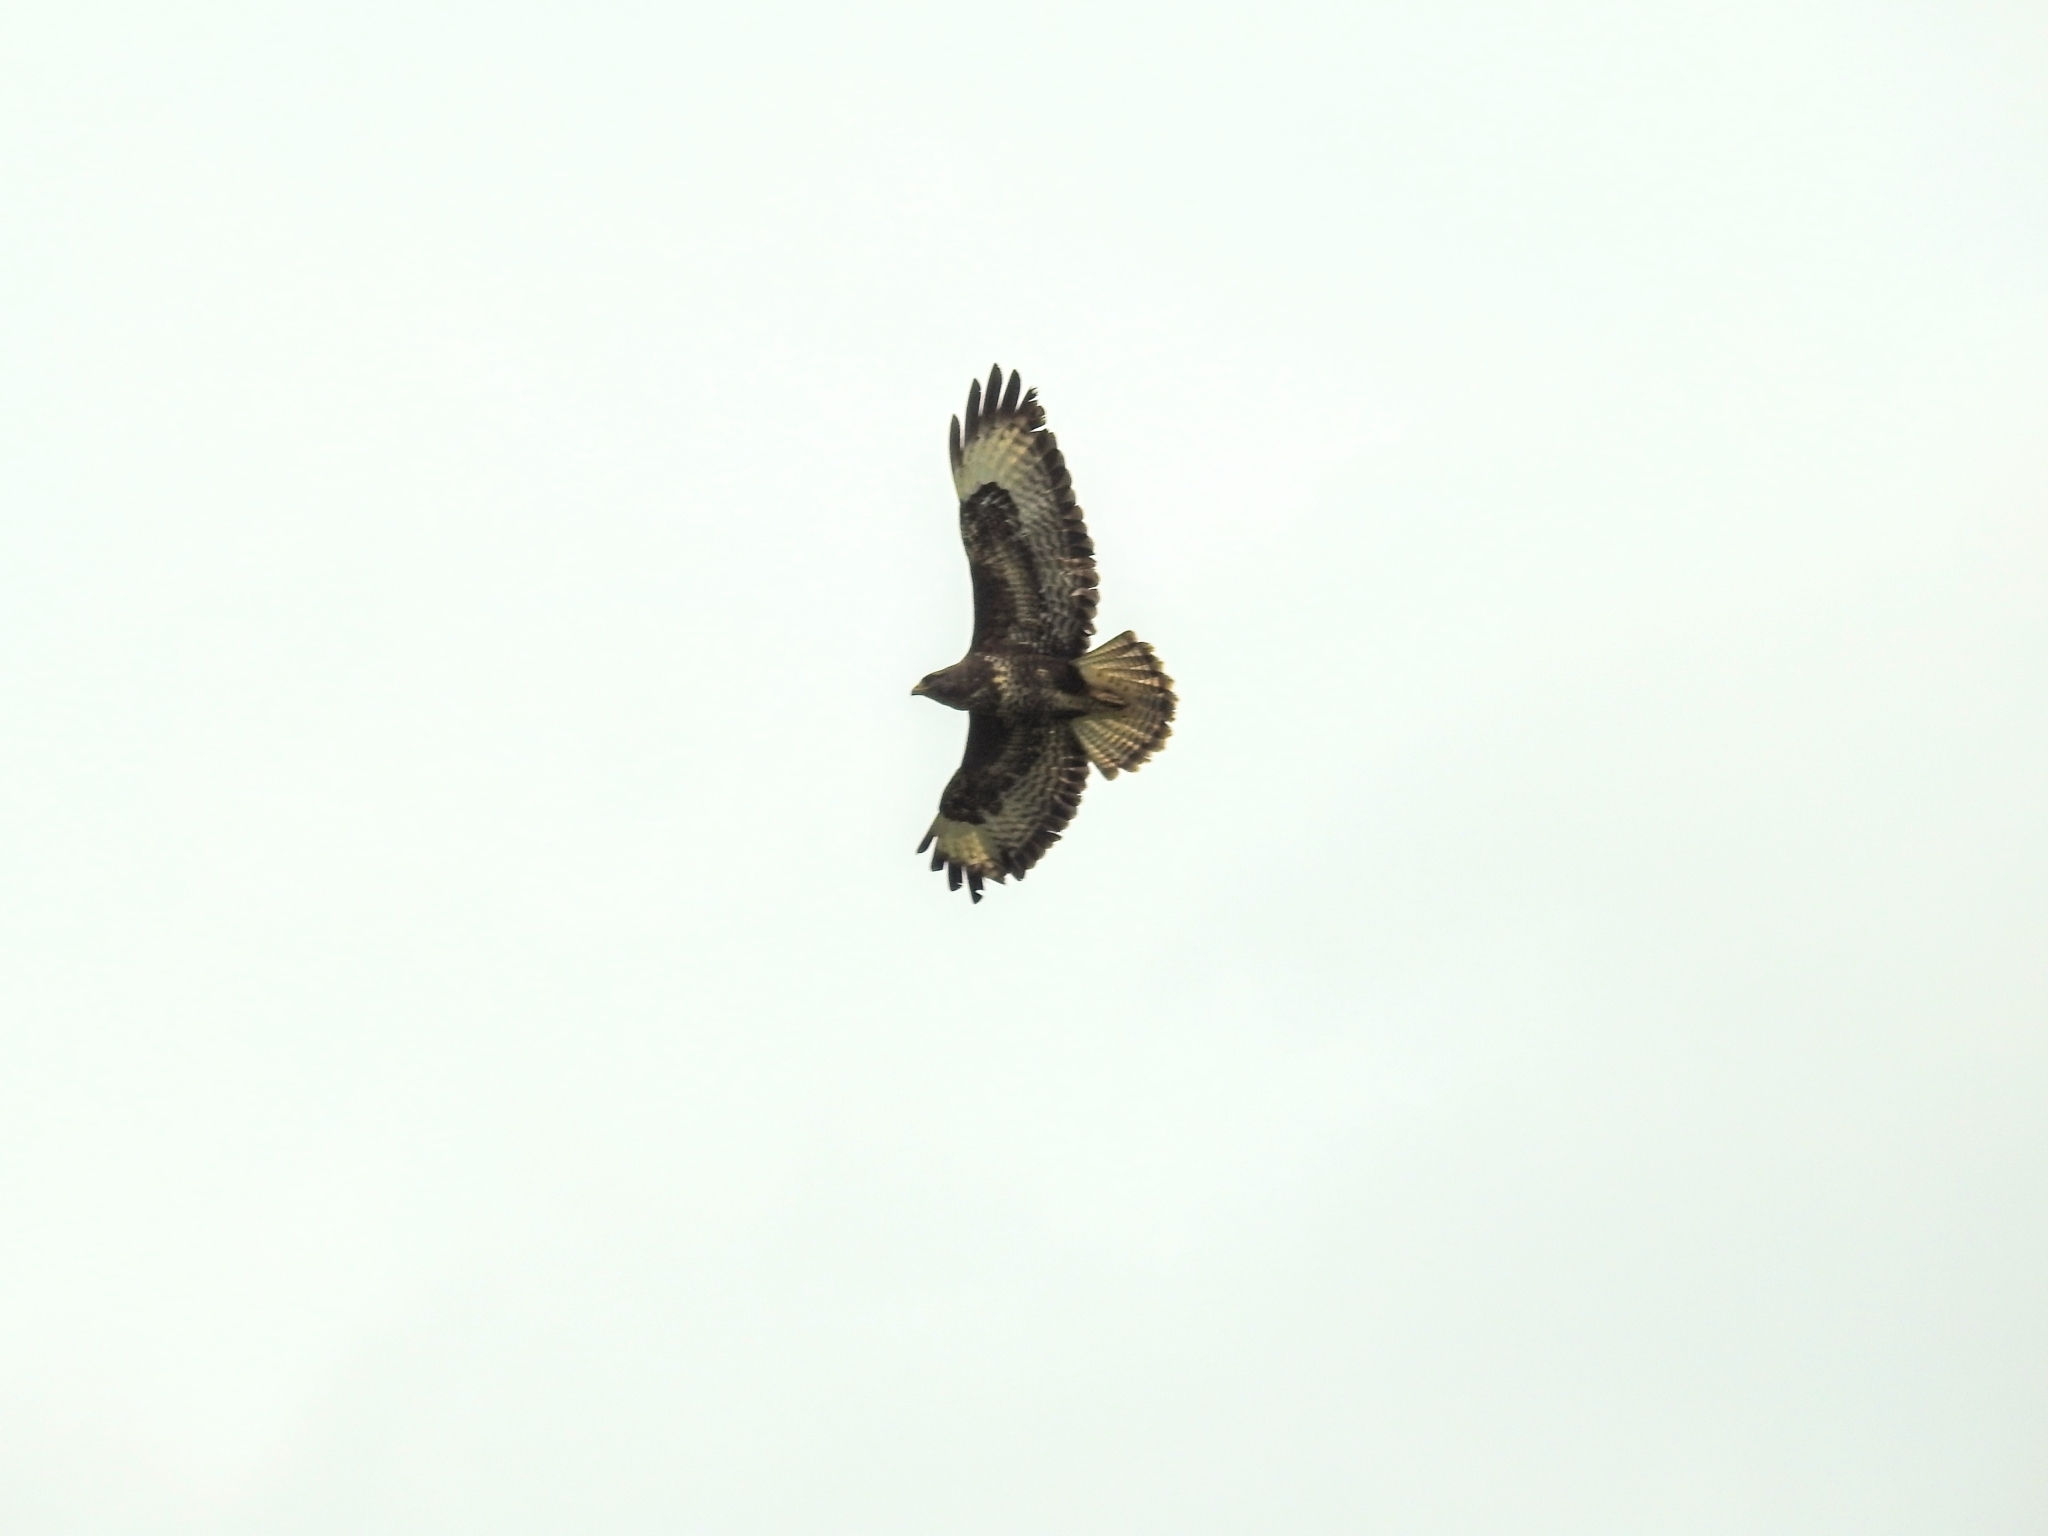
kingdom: Animalia
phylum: Chordata
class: Aves
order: Accipitriformes
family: Accipitridae
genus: Buteo
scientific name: Buteo buteo
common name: Common buzzard
